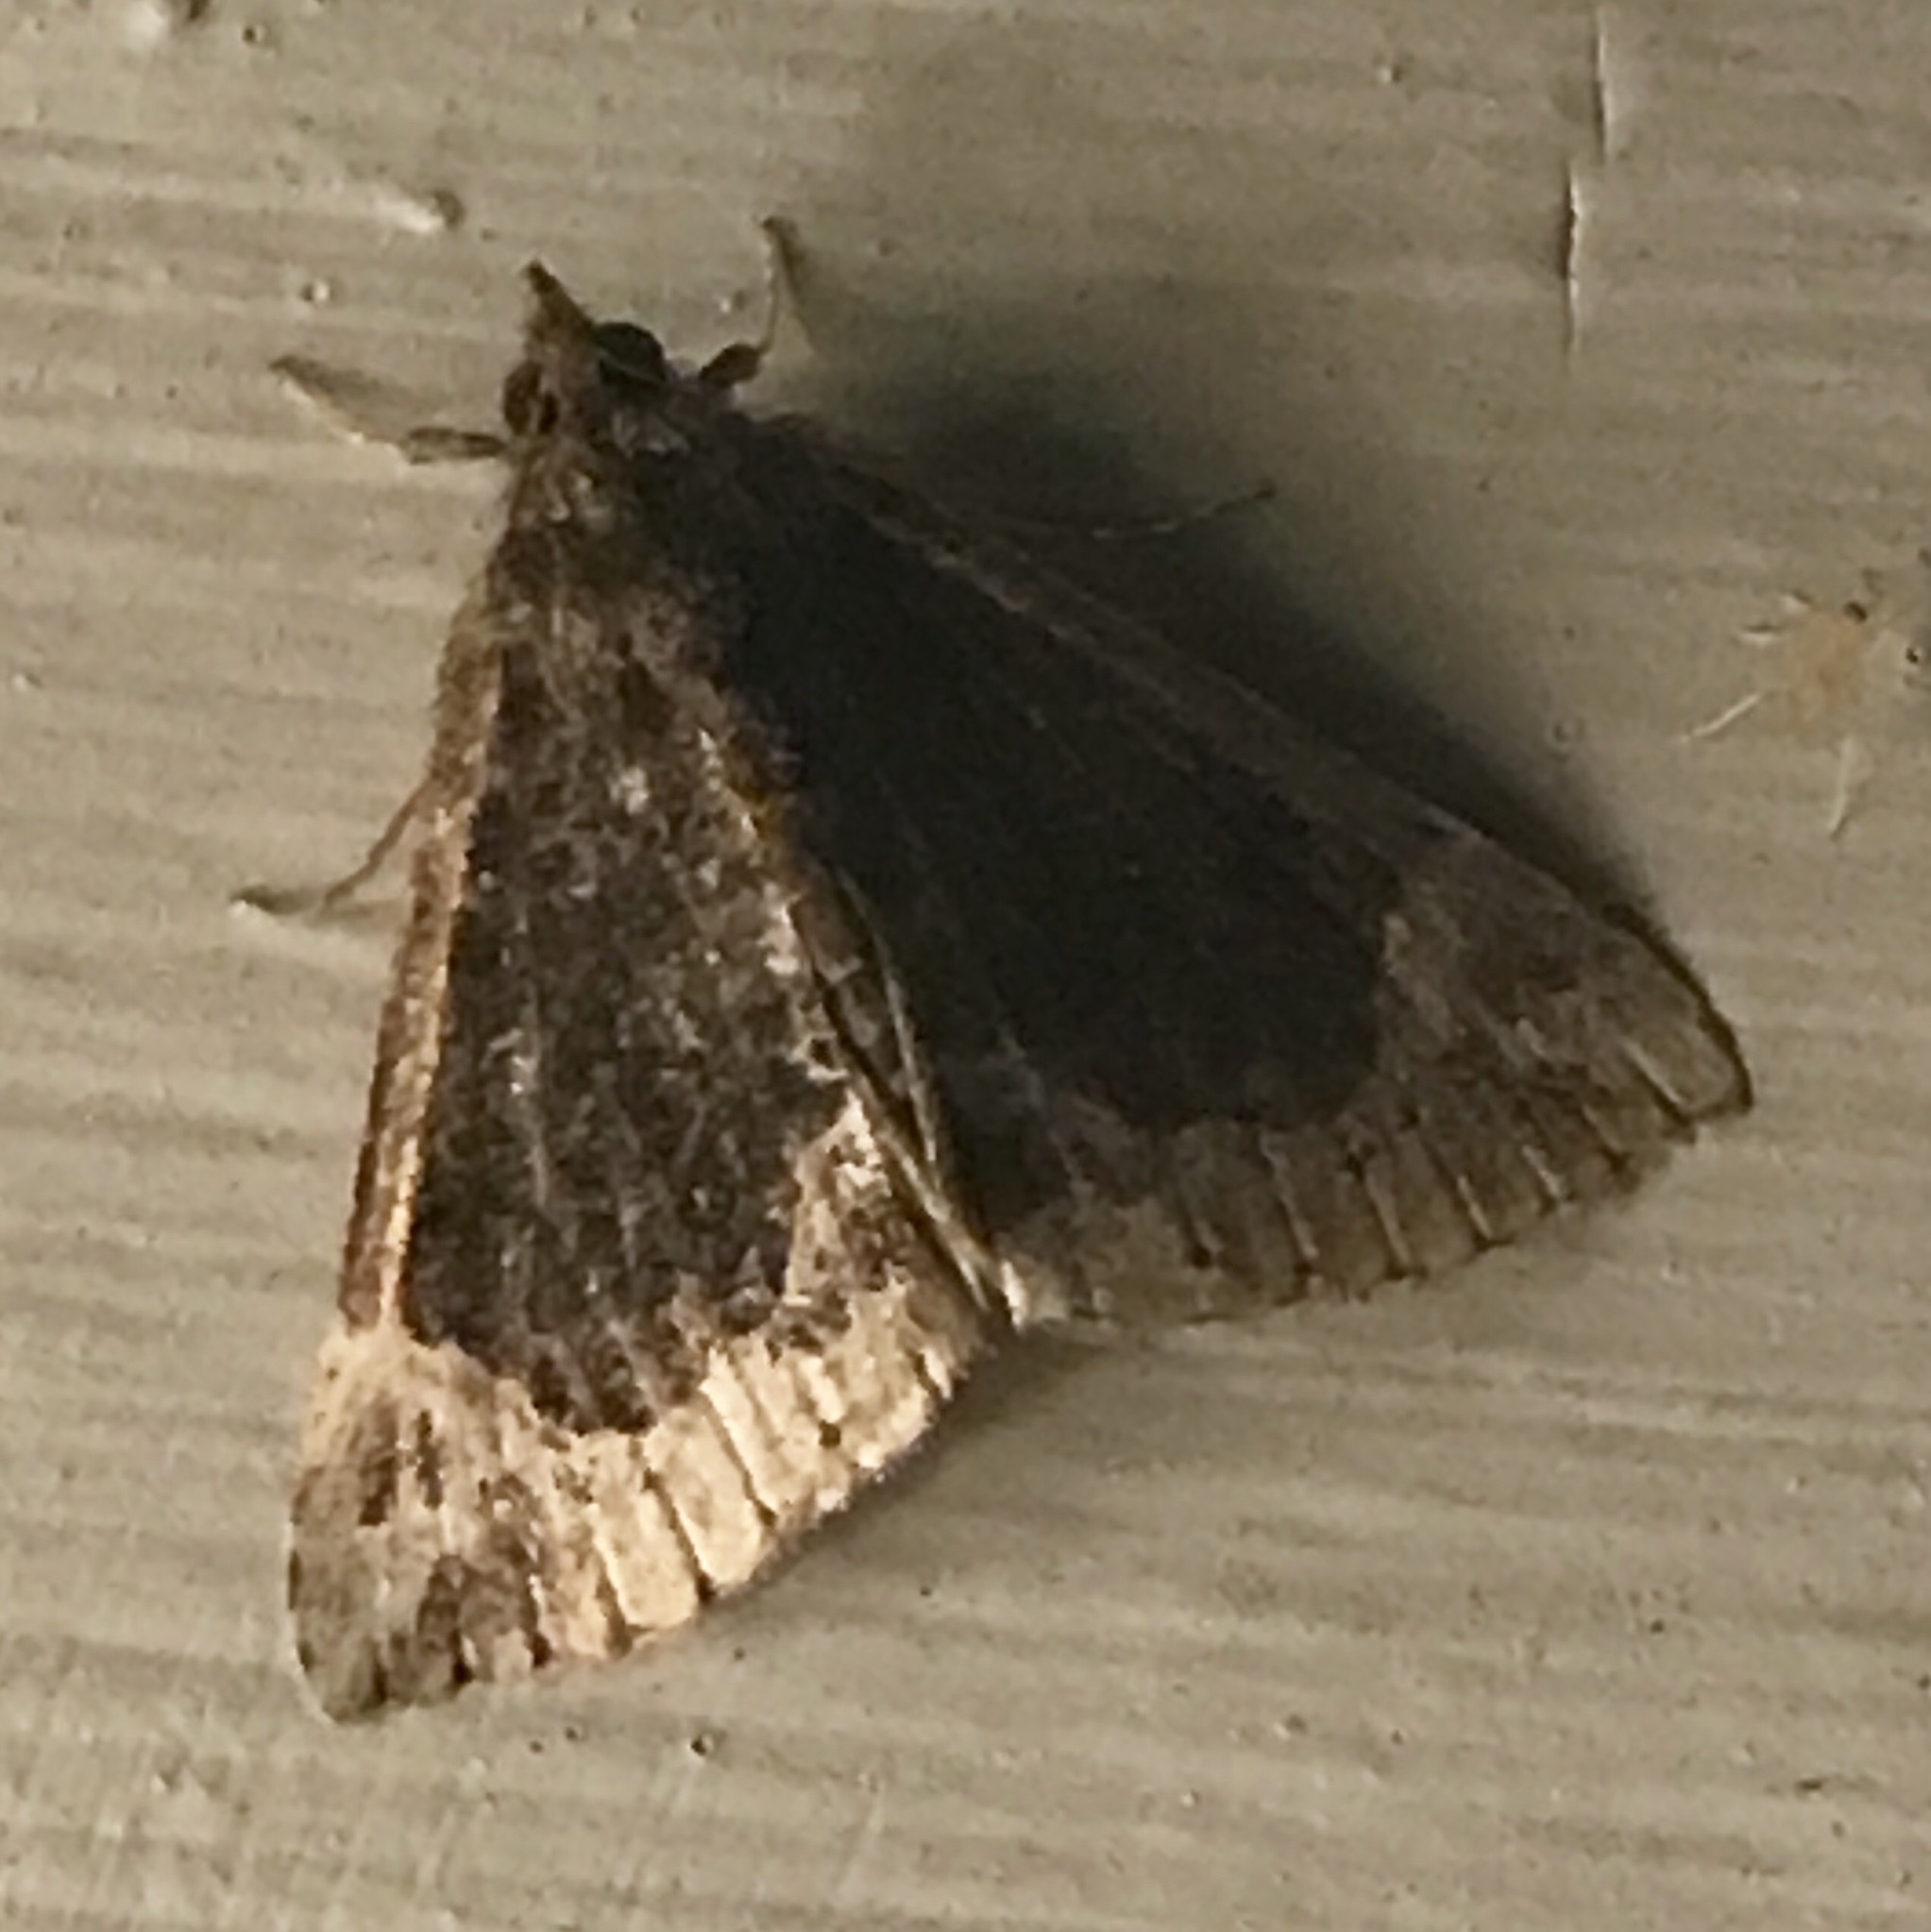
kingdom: Animalia
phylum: Arthropoda
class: Insecta
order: Lepidoptera
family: Erebidae
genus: Hypena
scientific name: Hypena abalienalis
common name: White-lined snout
